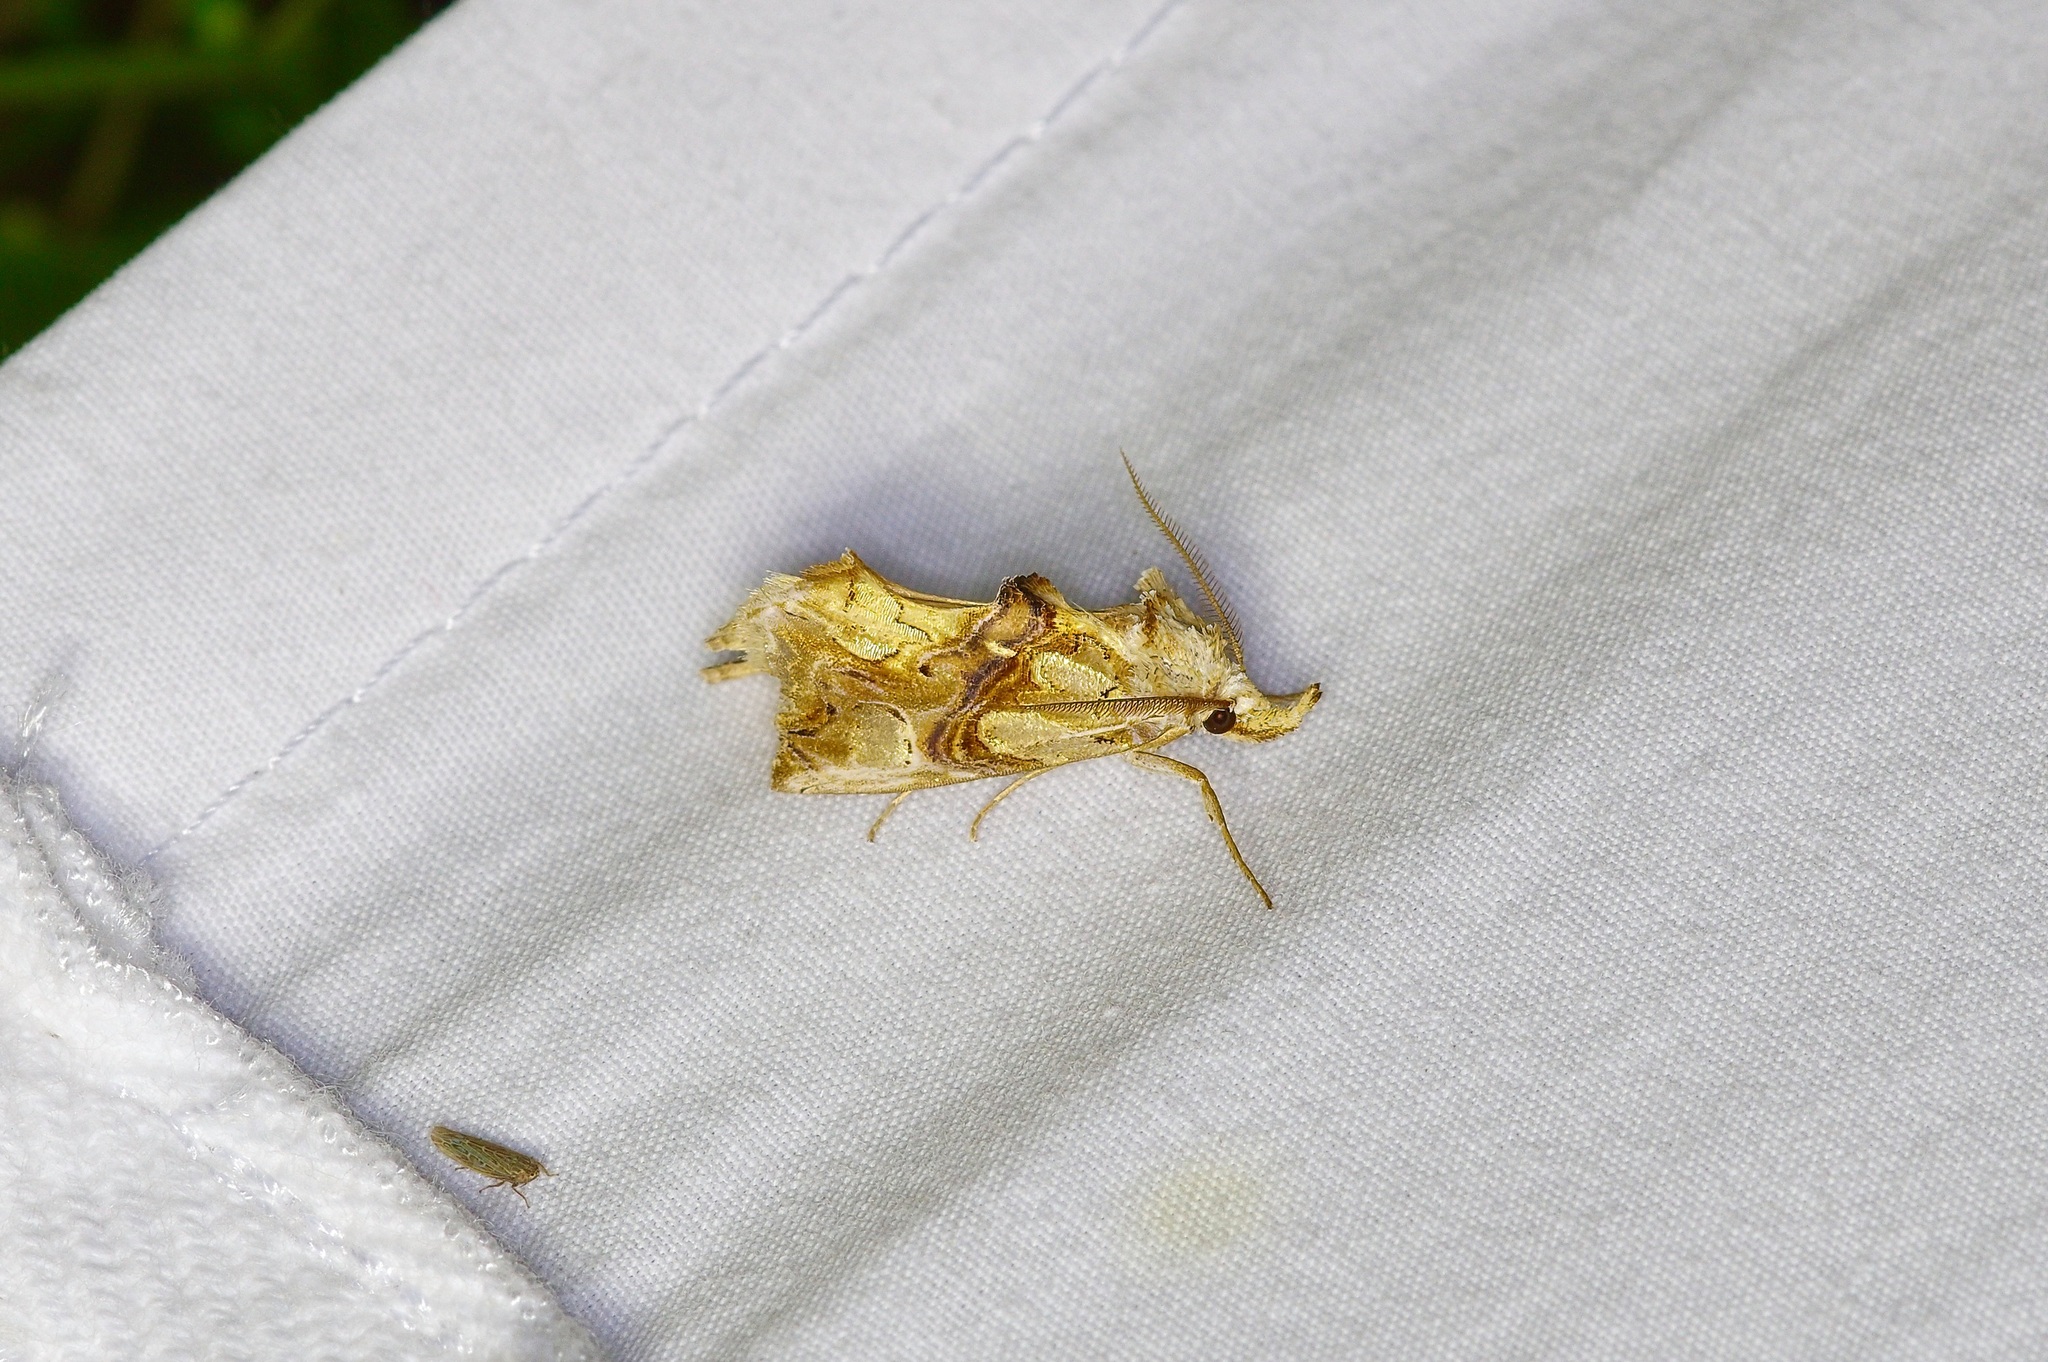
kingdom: Animalia
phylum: Arthropoda
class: Insecta
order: Lepidoptera
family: Erebidae
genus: Plusiodonta
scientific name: Plusiodonta compressipalpis
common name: Moonseed moth
